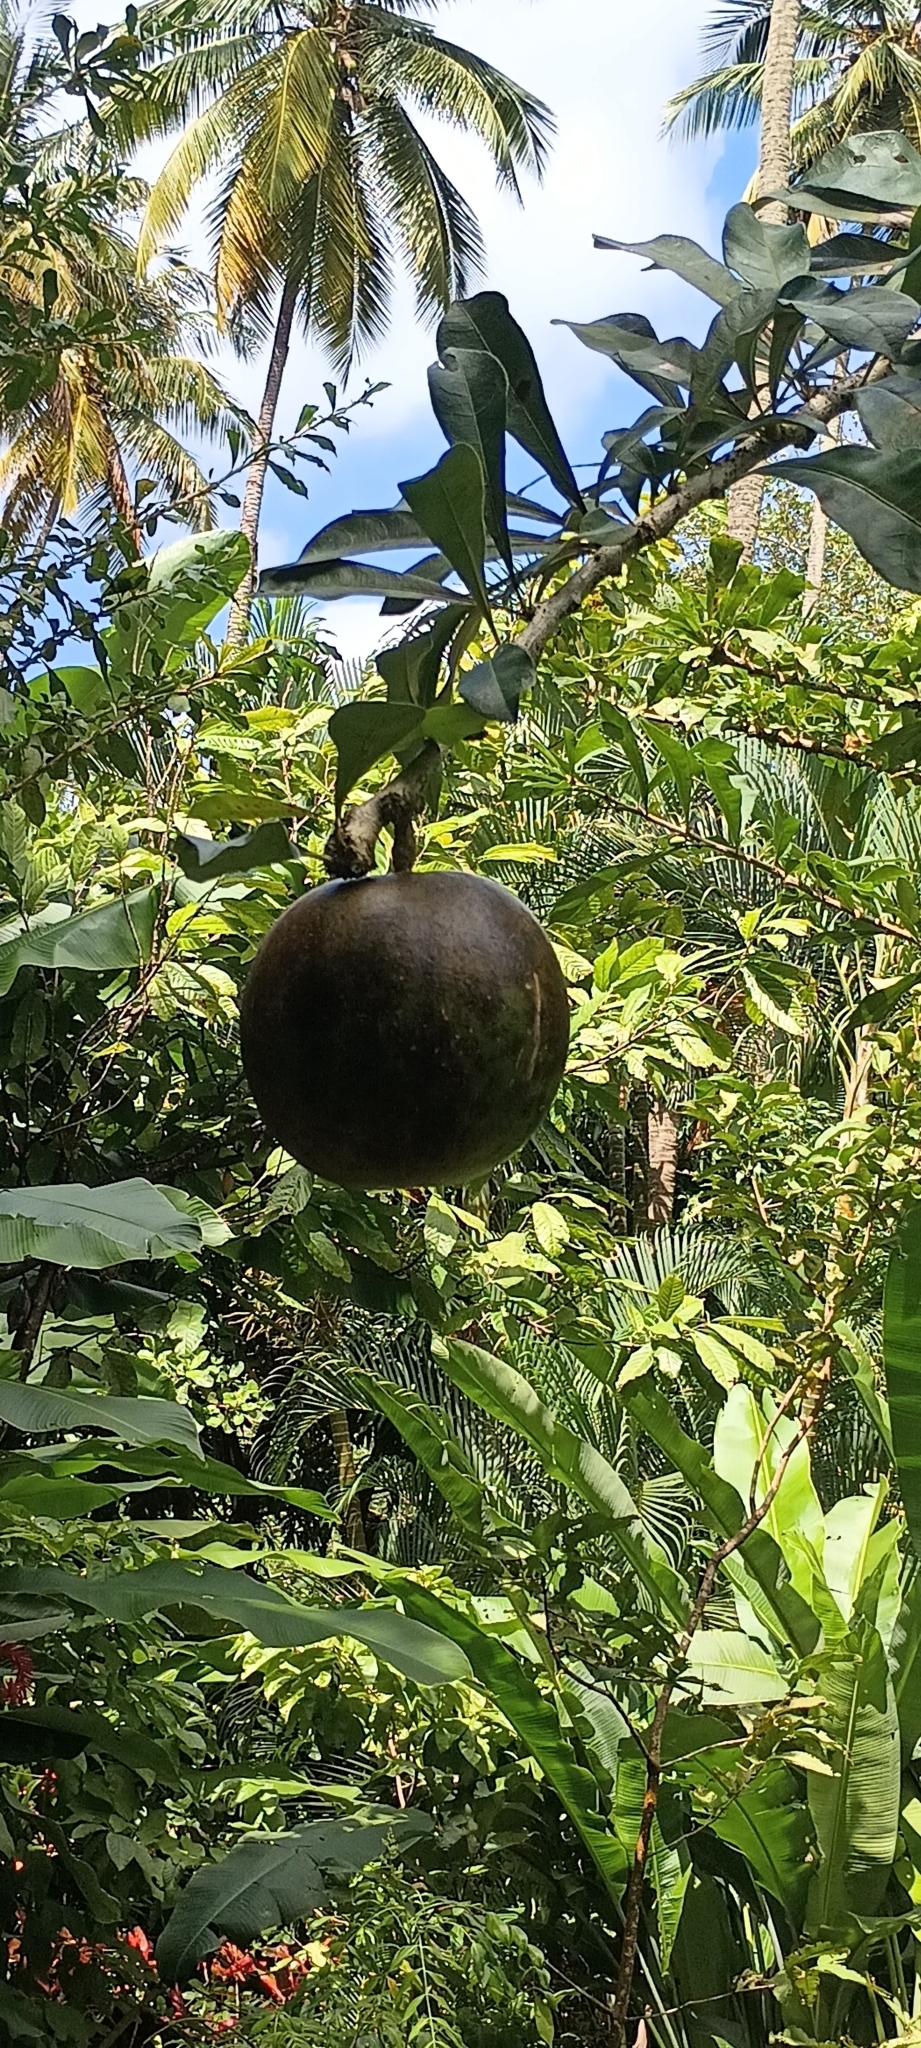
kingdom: Plantae
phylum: Tracheophyta
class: Magnoliopsida
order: Lamiales
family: Bignoniaceae
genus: Crescentia
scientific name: Crescentia cujete
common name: Calabash
